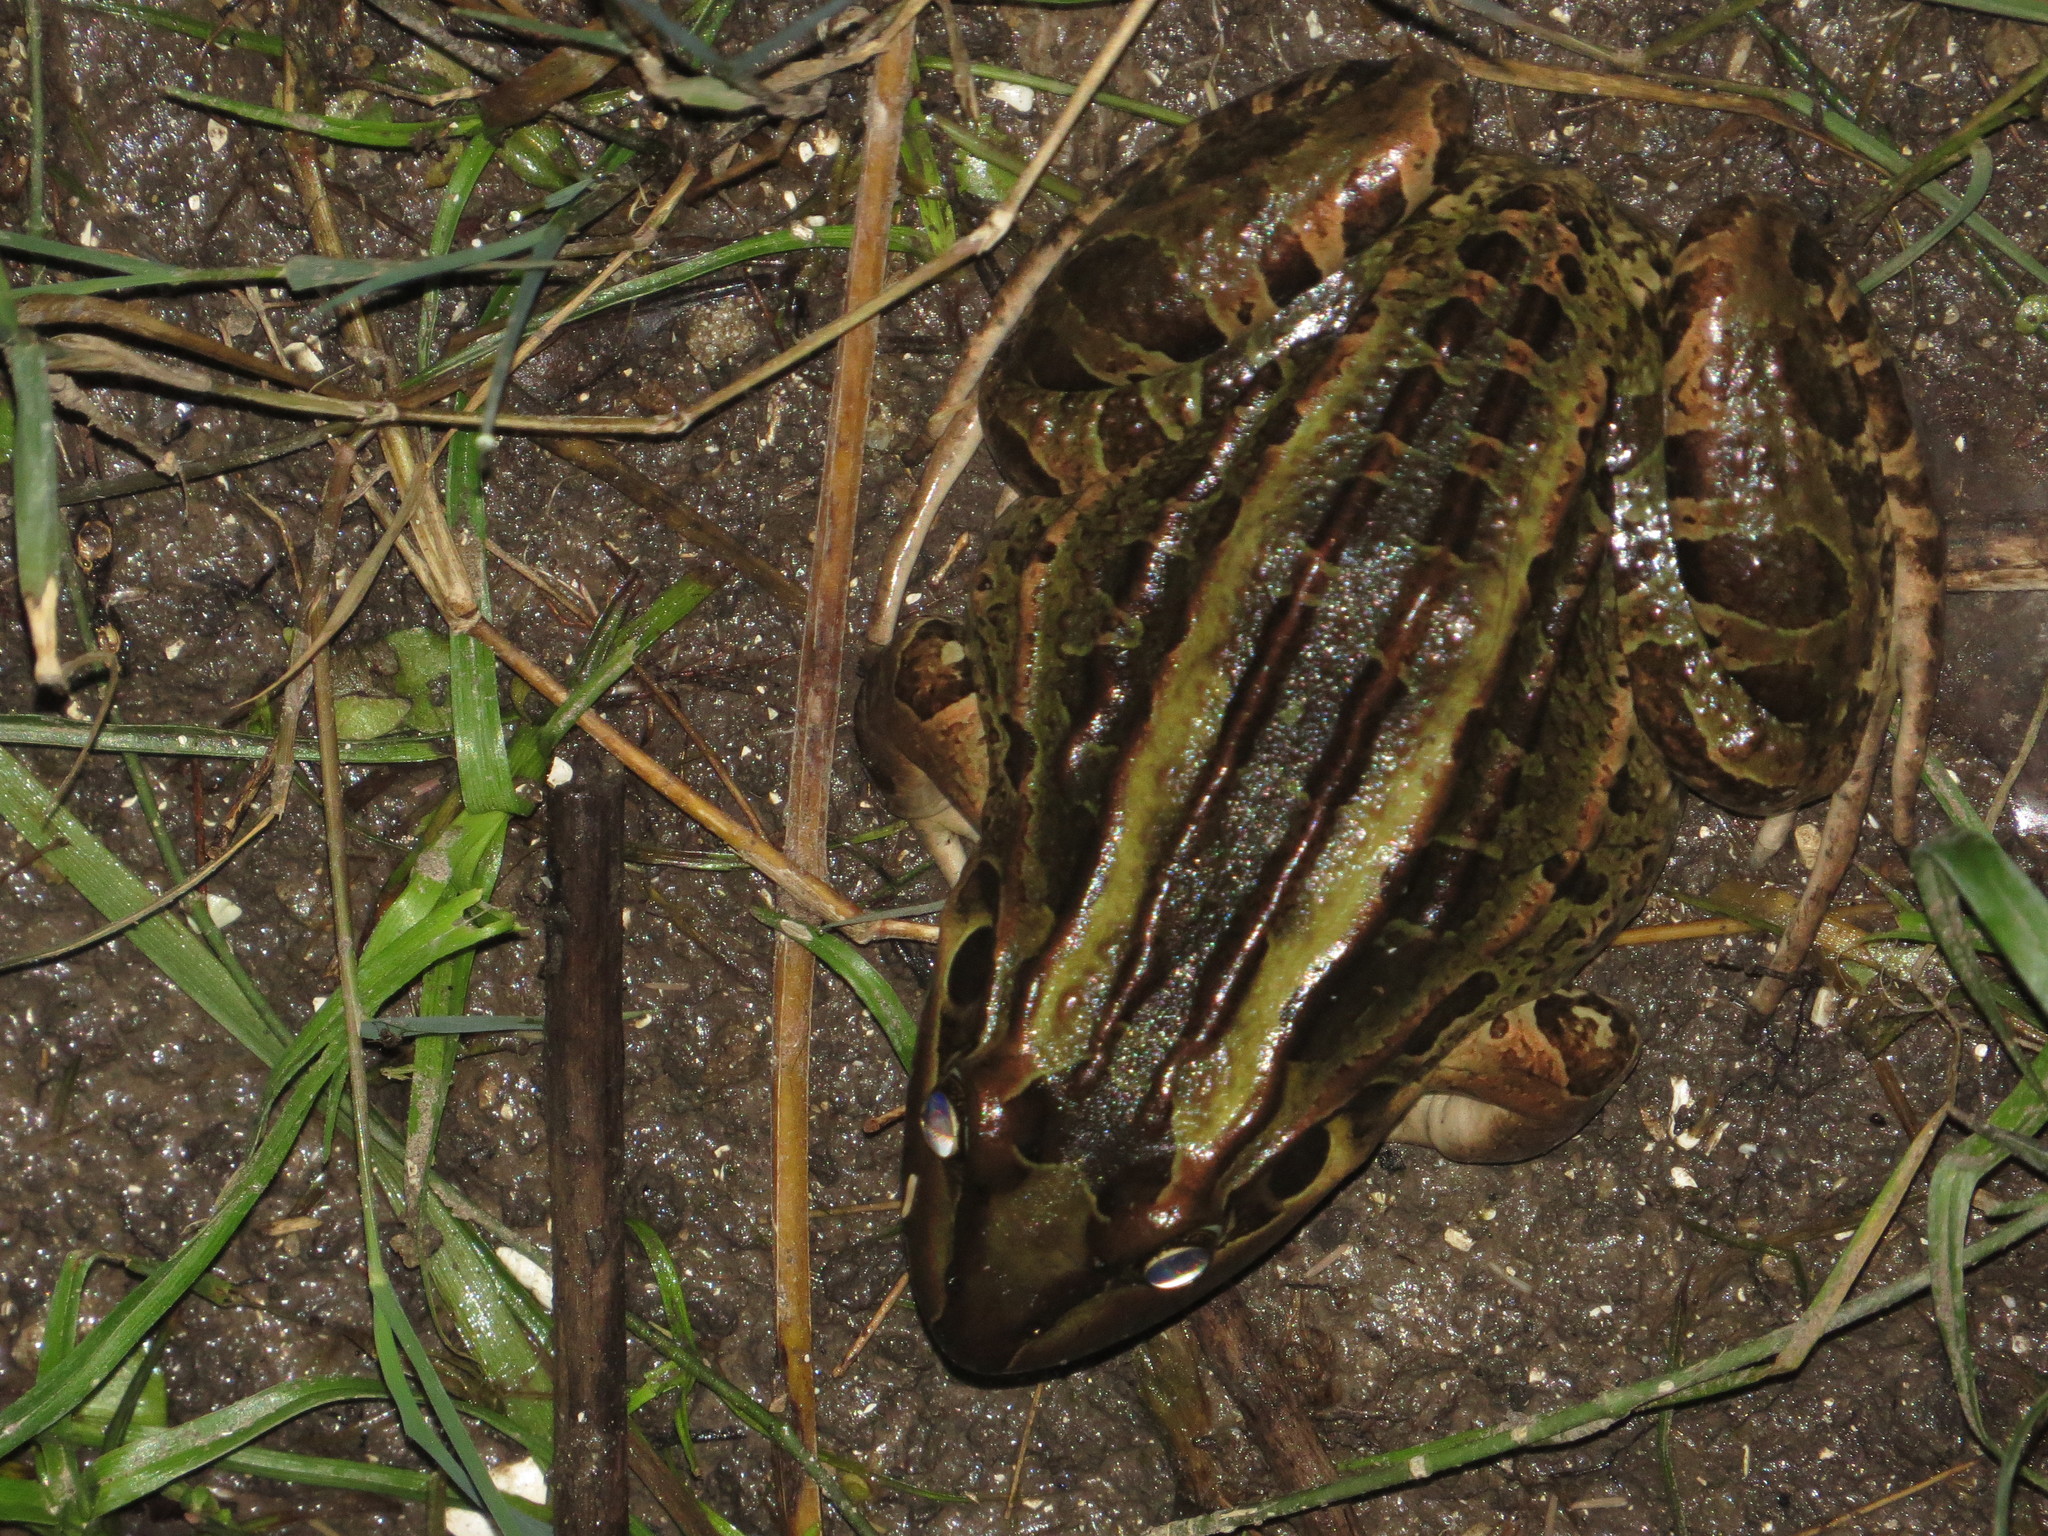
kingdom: Animalia
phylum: Chordata
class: Amphibia
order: Anura
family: Leptodactylidae
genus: Leptodactylus
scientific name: Leptodactylus luctator
